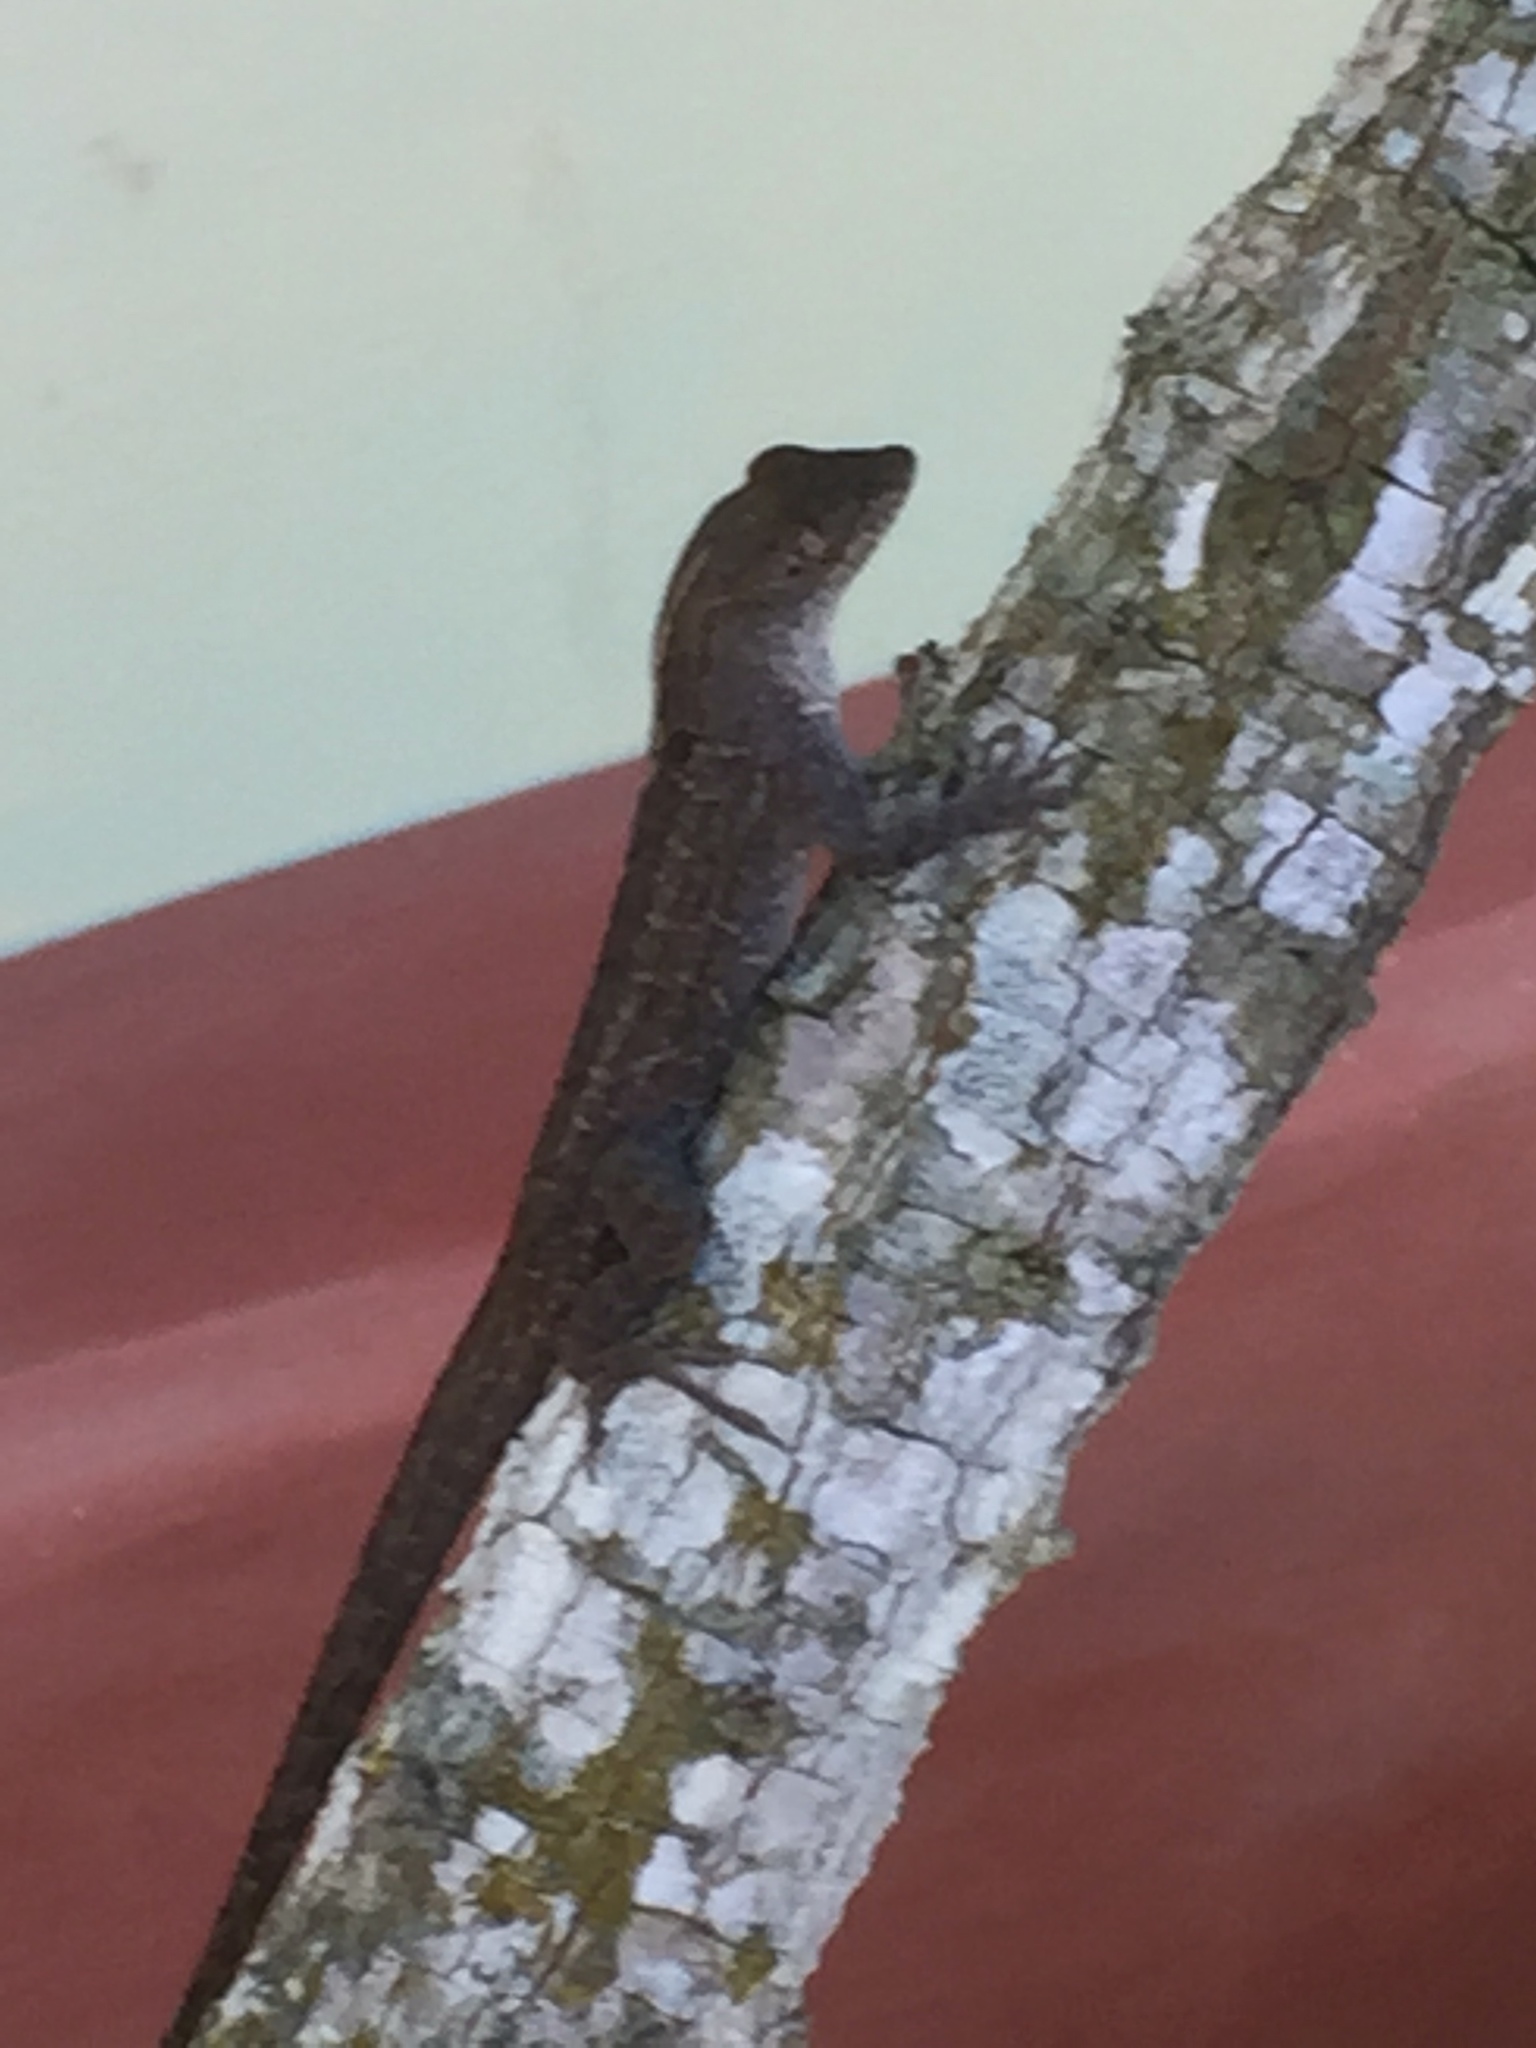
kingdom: Animalia
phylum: Chordata
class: Squamata
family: Dactyloidae
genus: Anolis
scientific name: Anolis sagrei
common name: Brown anole
